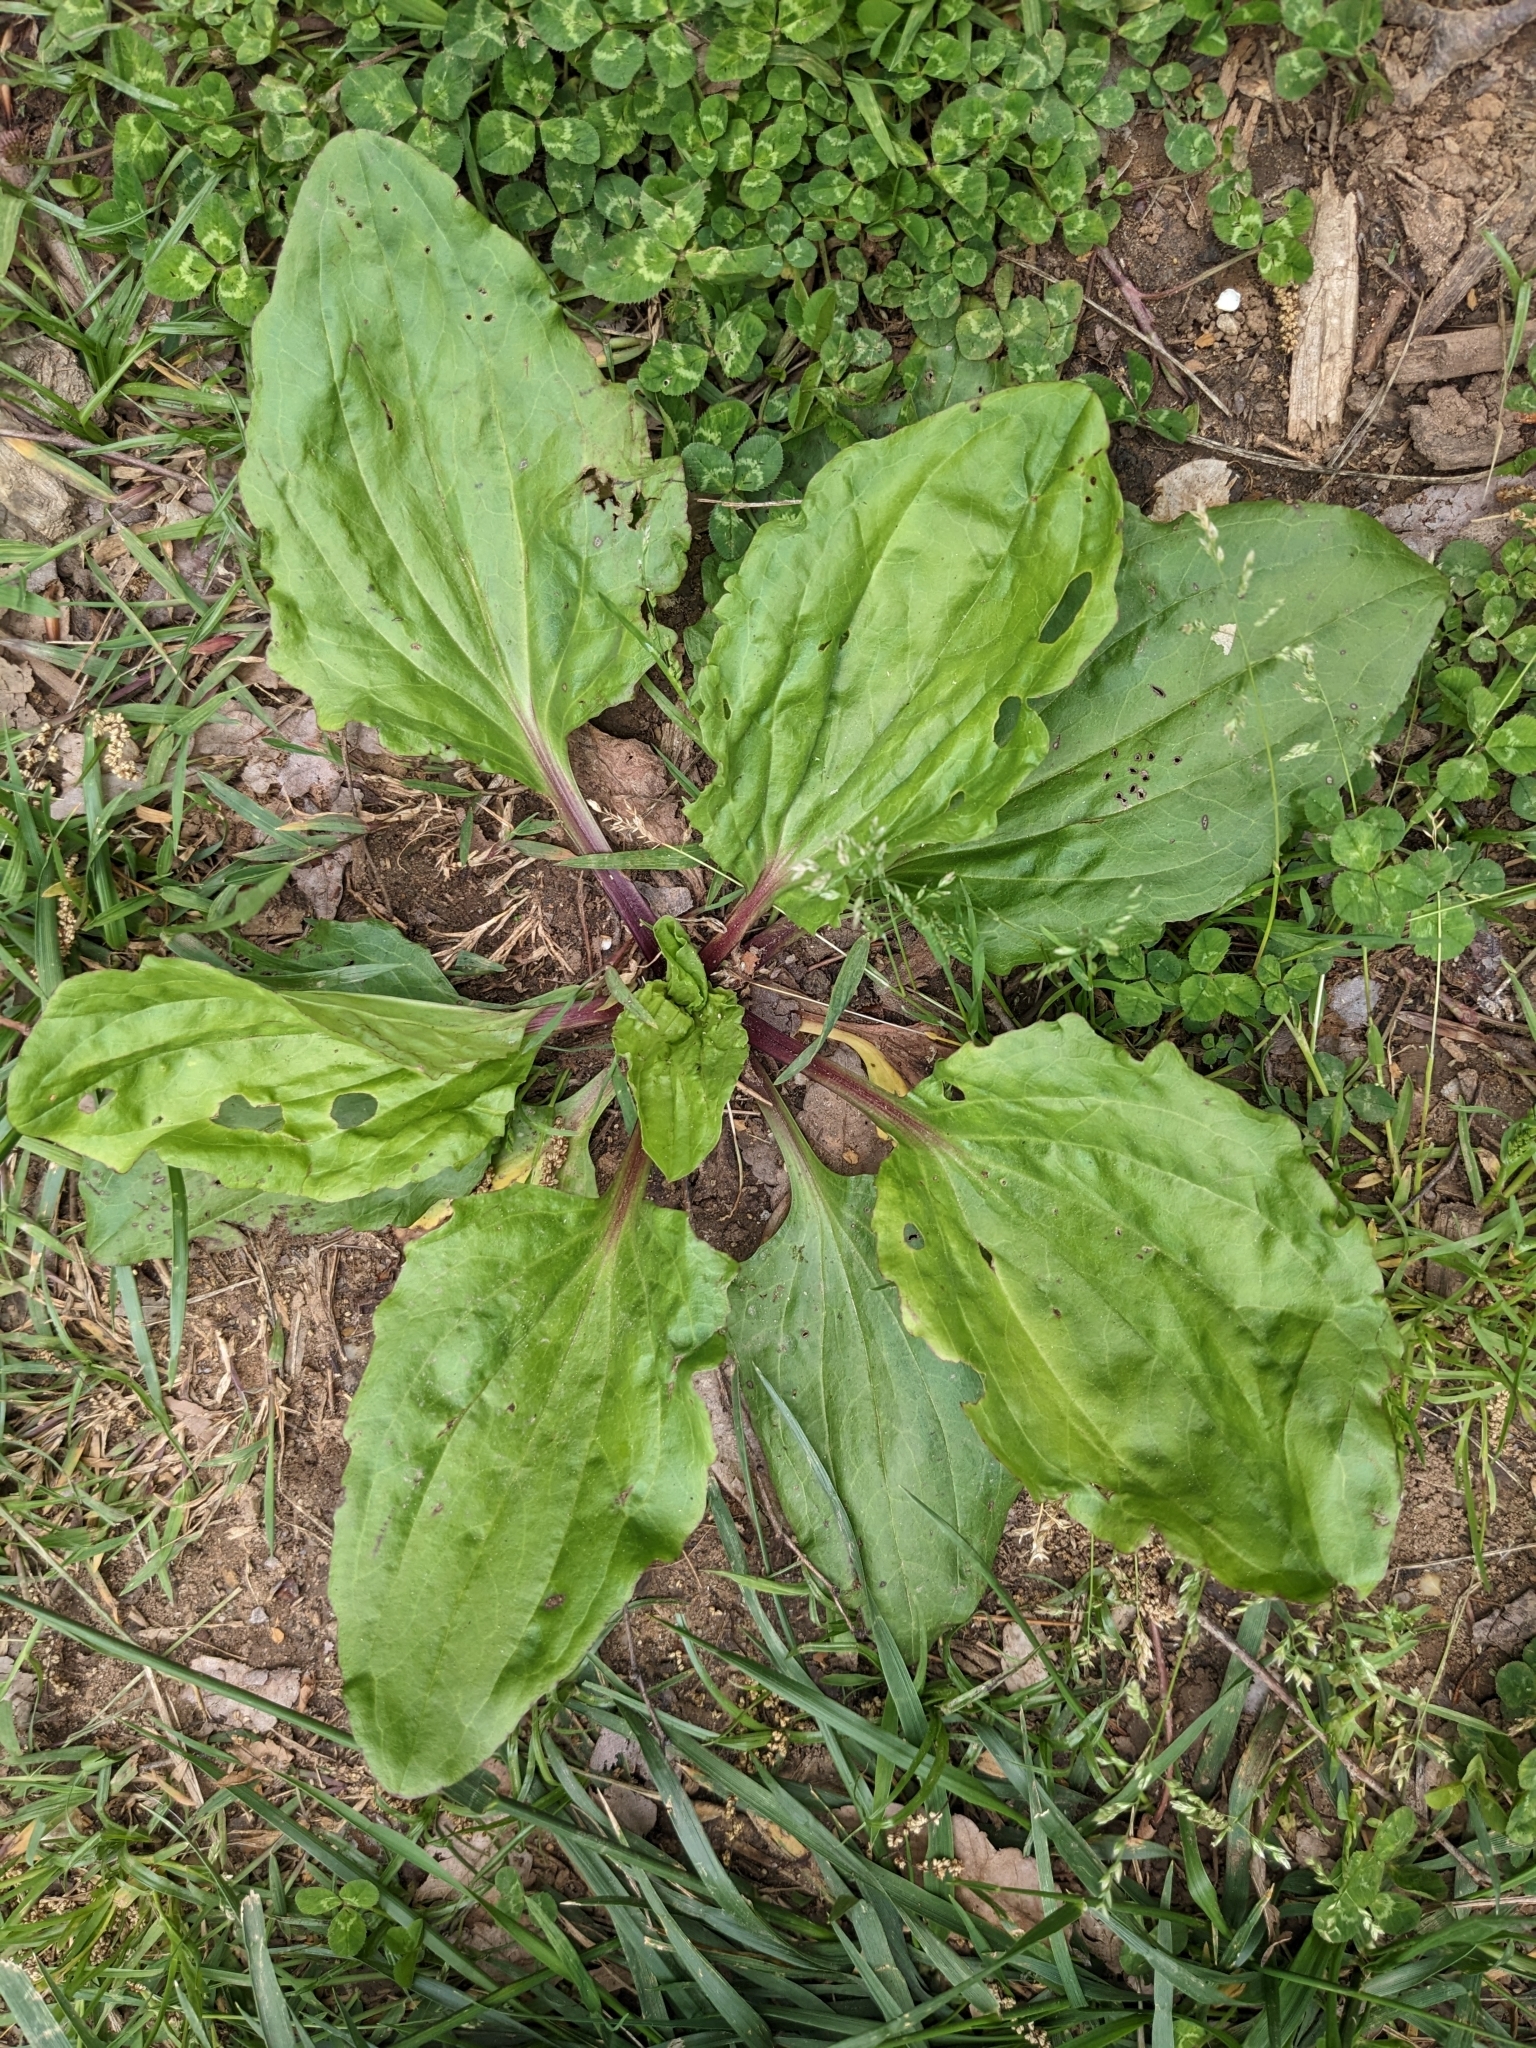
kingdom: Plantae
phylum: Tracheophyta
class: Magnoliopsida
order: Lamiales
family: Plantaginaceae
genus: Plantago
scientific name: Plantago rugelii
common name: American plantain
